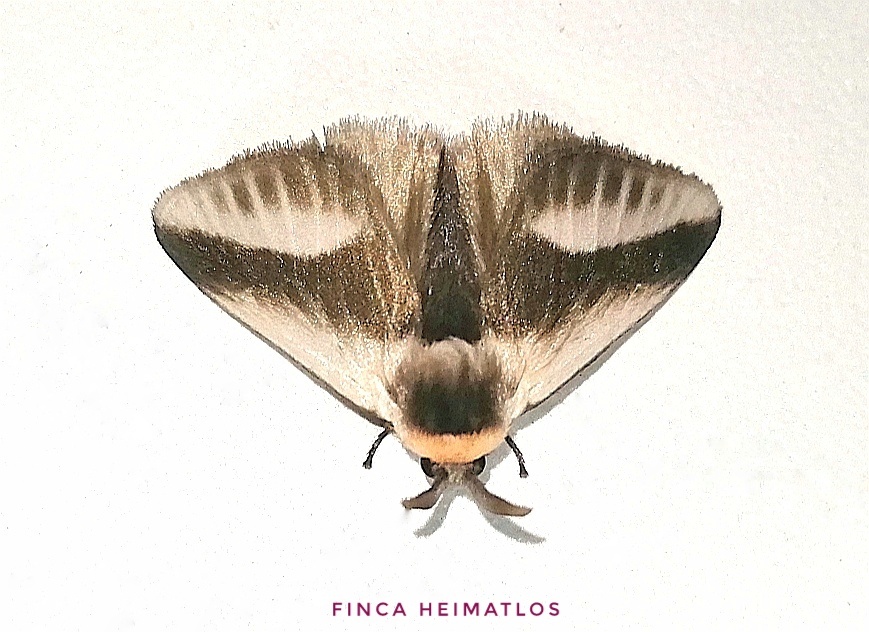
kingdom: Animalia
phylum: Arthropoda
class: Insecta
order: Lepidoptera
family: Megalopygidae
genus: Mesoscia
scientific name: Mesoscia dumilla
